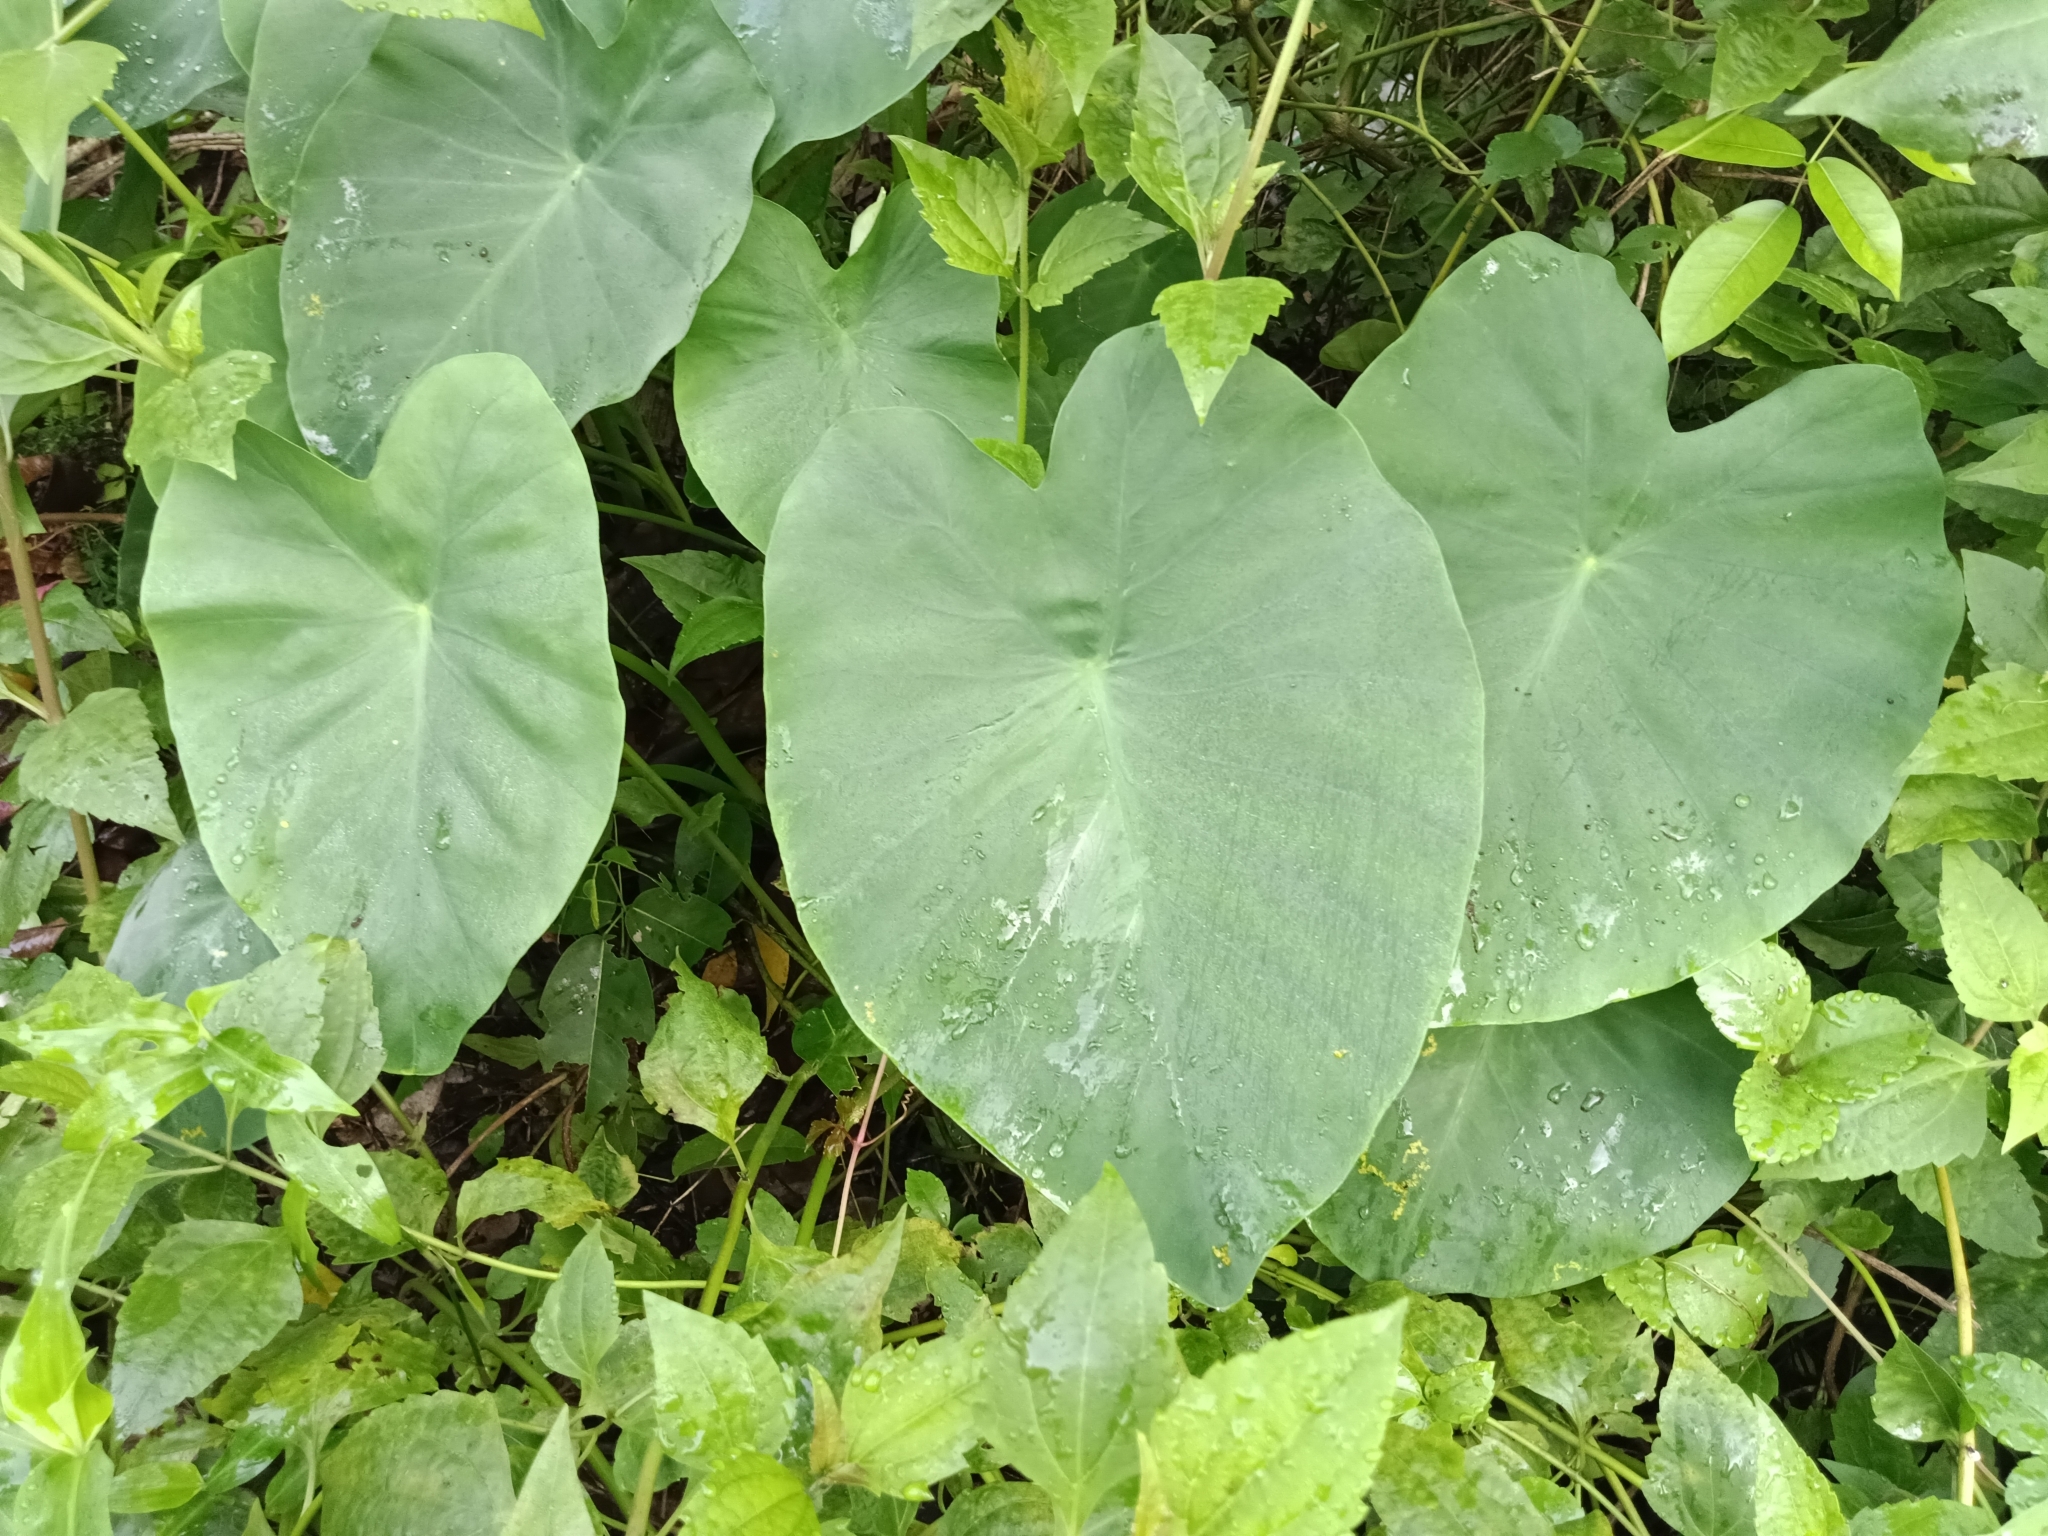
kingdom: Plantae
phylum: Tracheophyta
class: Liliopsida
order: Alismatales
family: Araceae
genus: Colocasia
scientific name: Colocasia esculenta
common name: Taro
